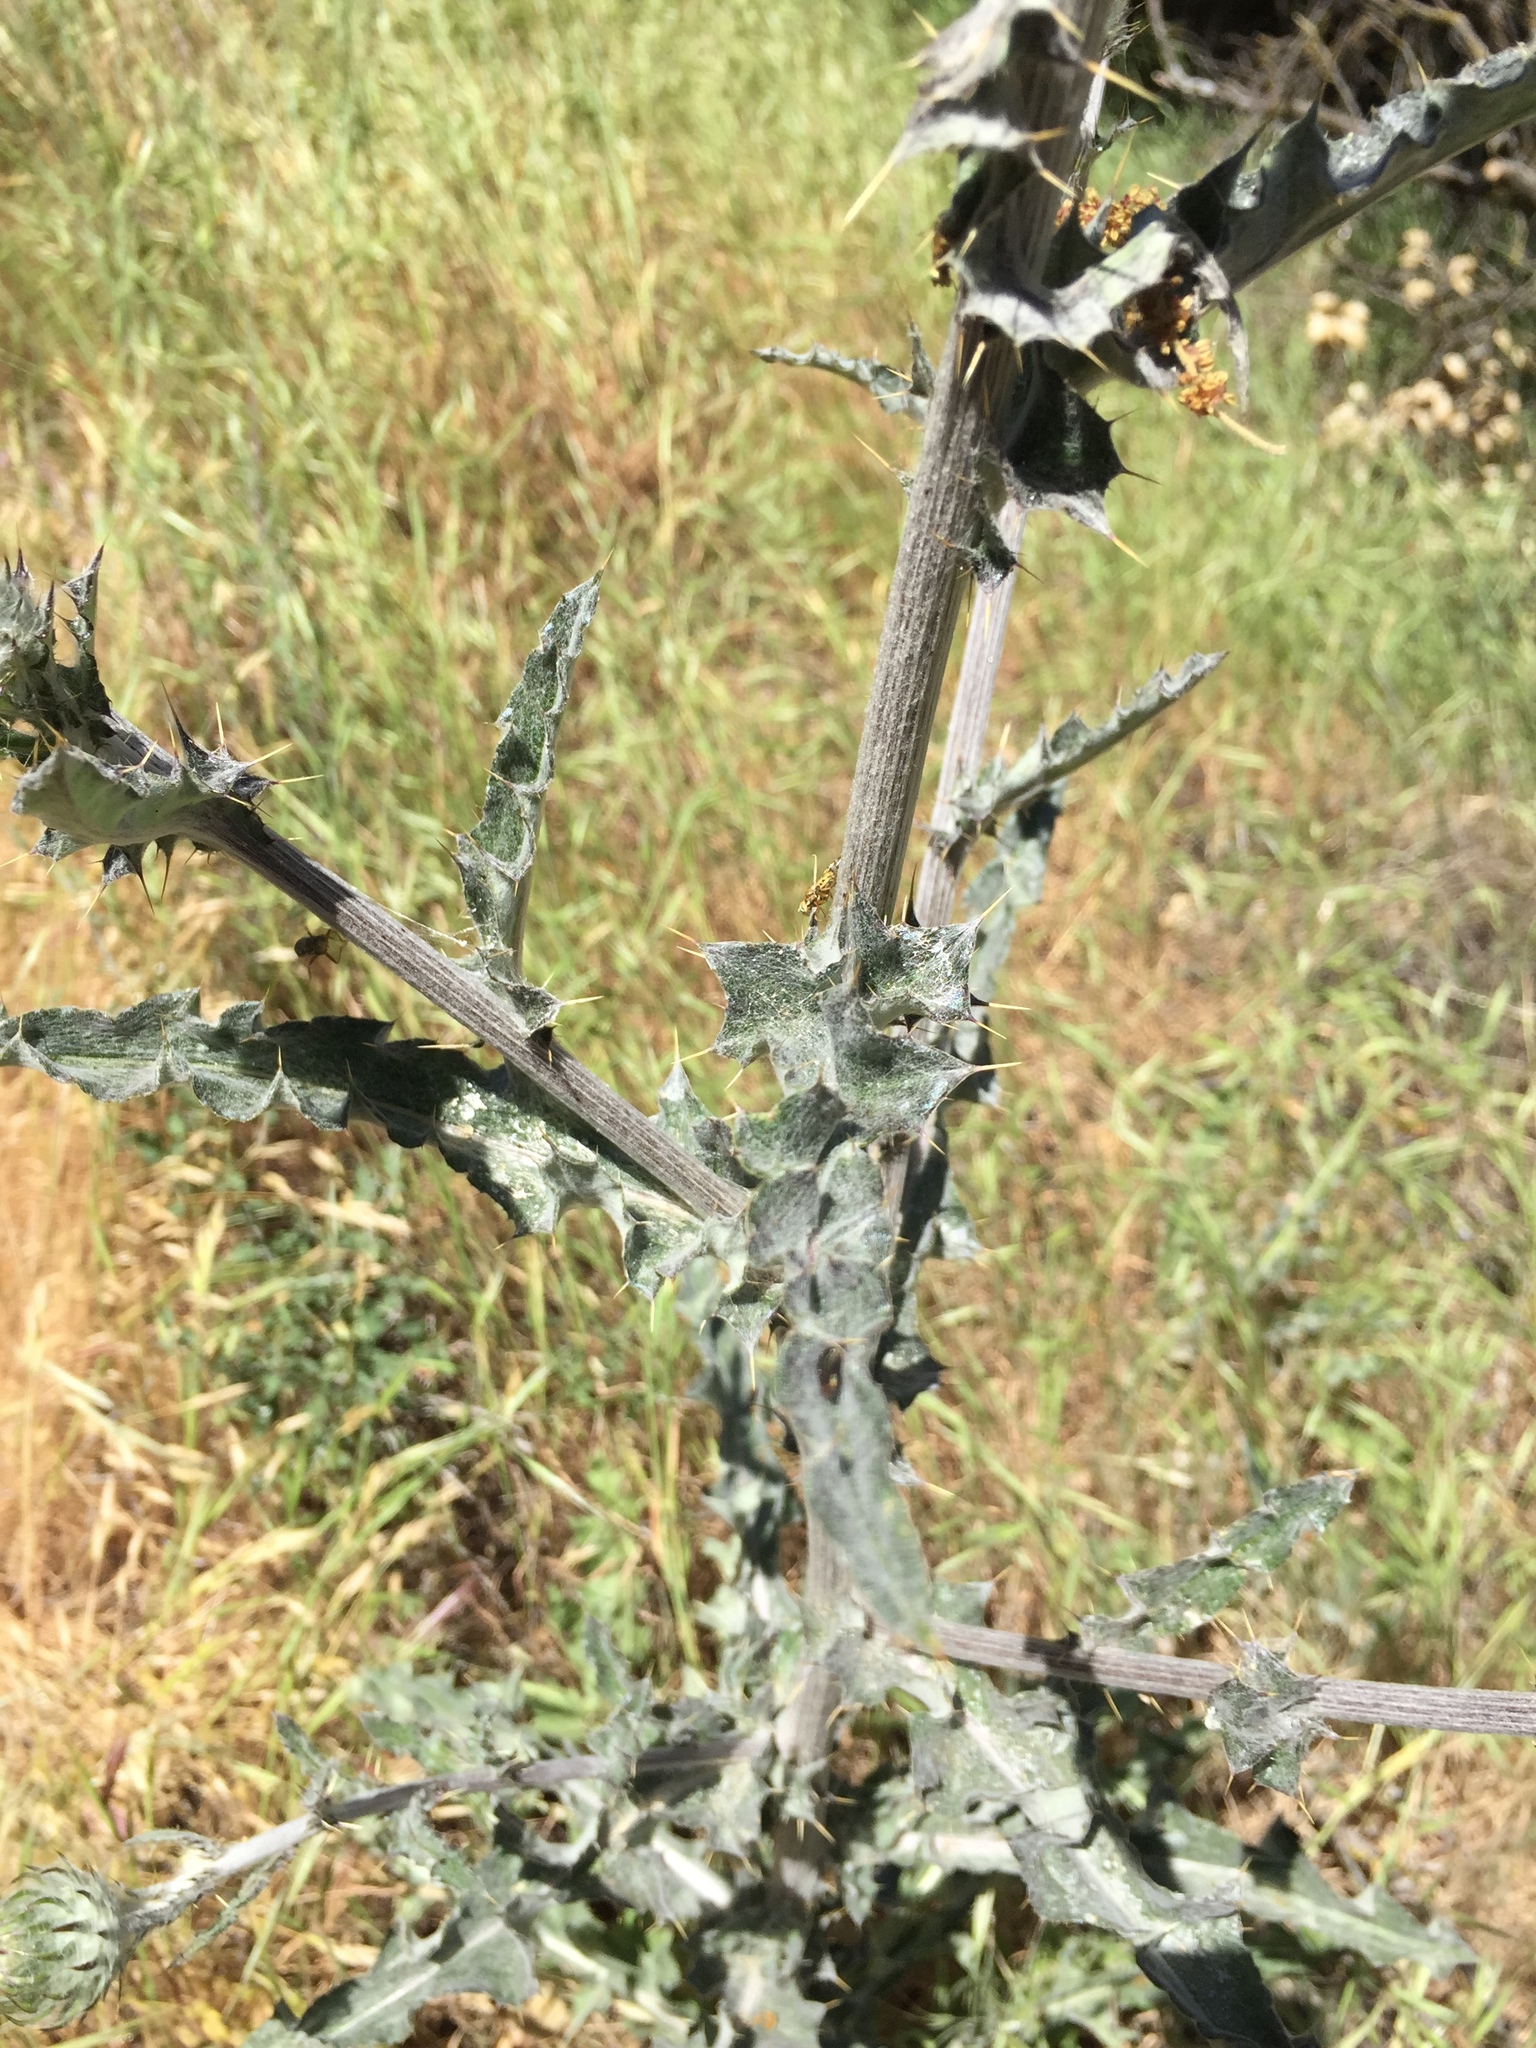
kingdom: Plantae
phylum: Tracheophyta
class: Magnoliopsida
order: Asterales
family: Asteraceae
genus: Cirsium
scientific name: Cirsium occidentale
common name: Western thistle
